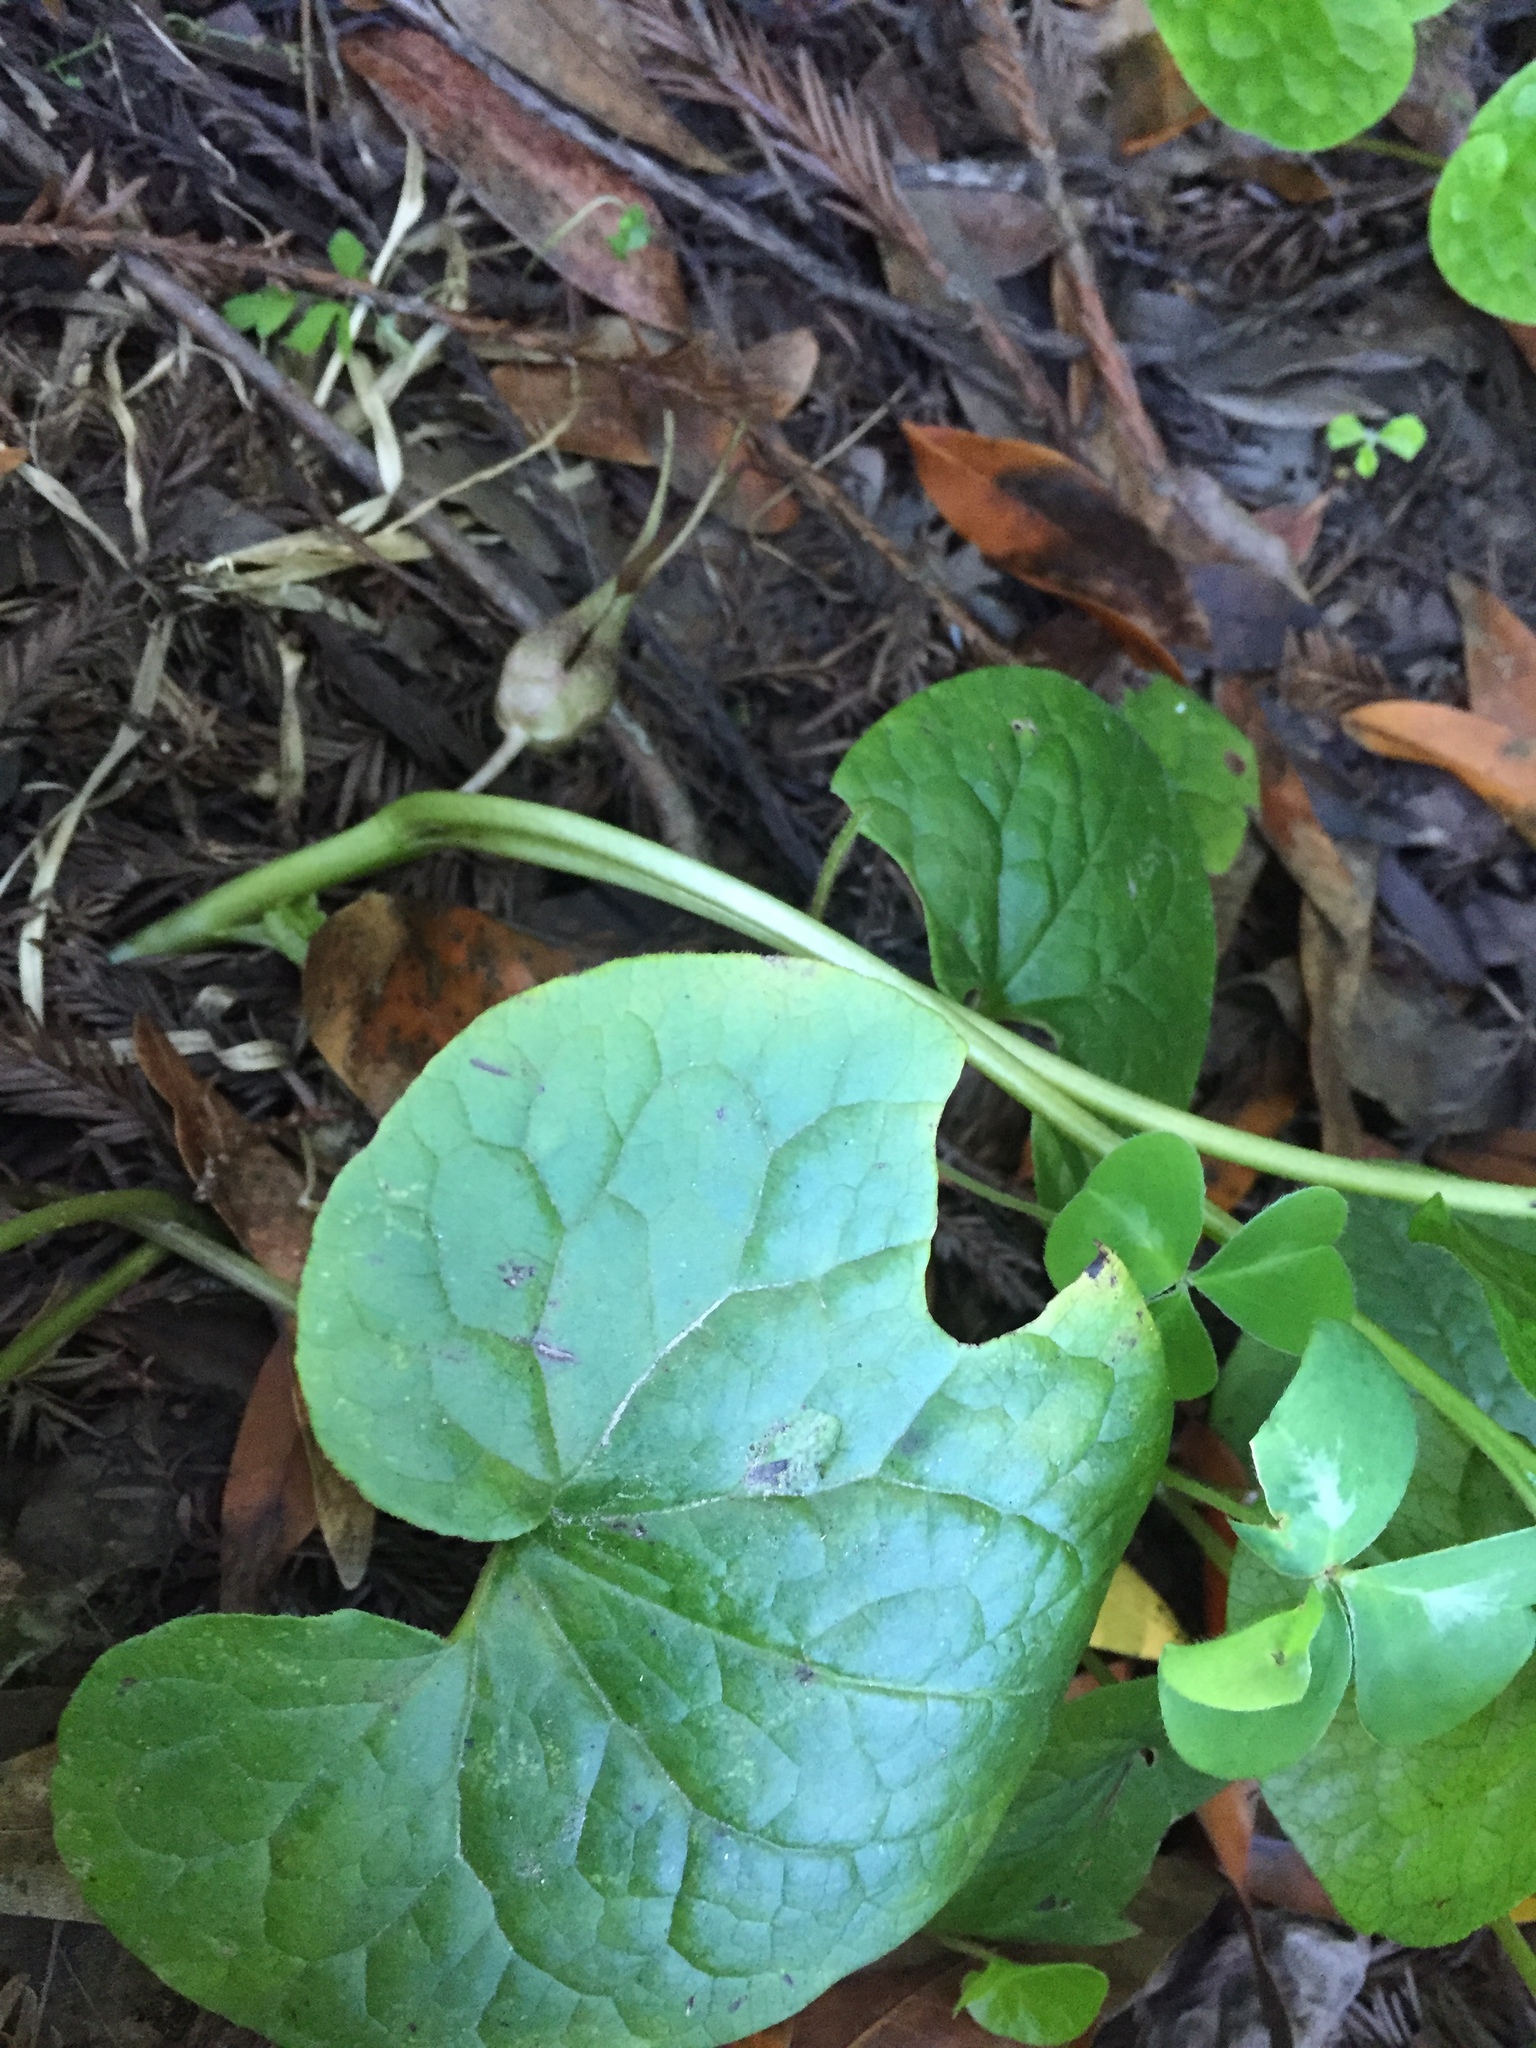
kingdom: Plantae
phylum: Tracheophyta
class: Magnoliopsida
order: Piperales
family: Aristolochiaceae
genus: Asarum
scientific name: Asarum caudatum
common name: Wild ginger
